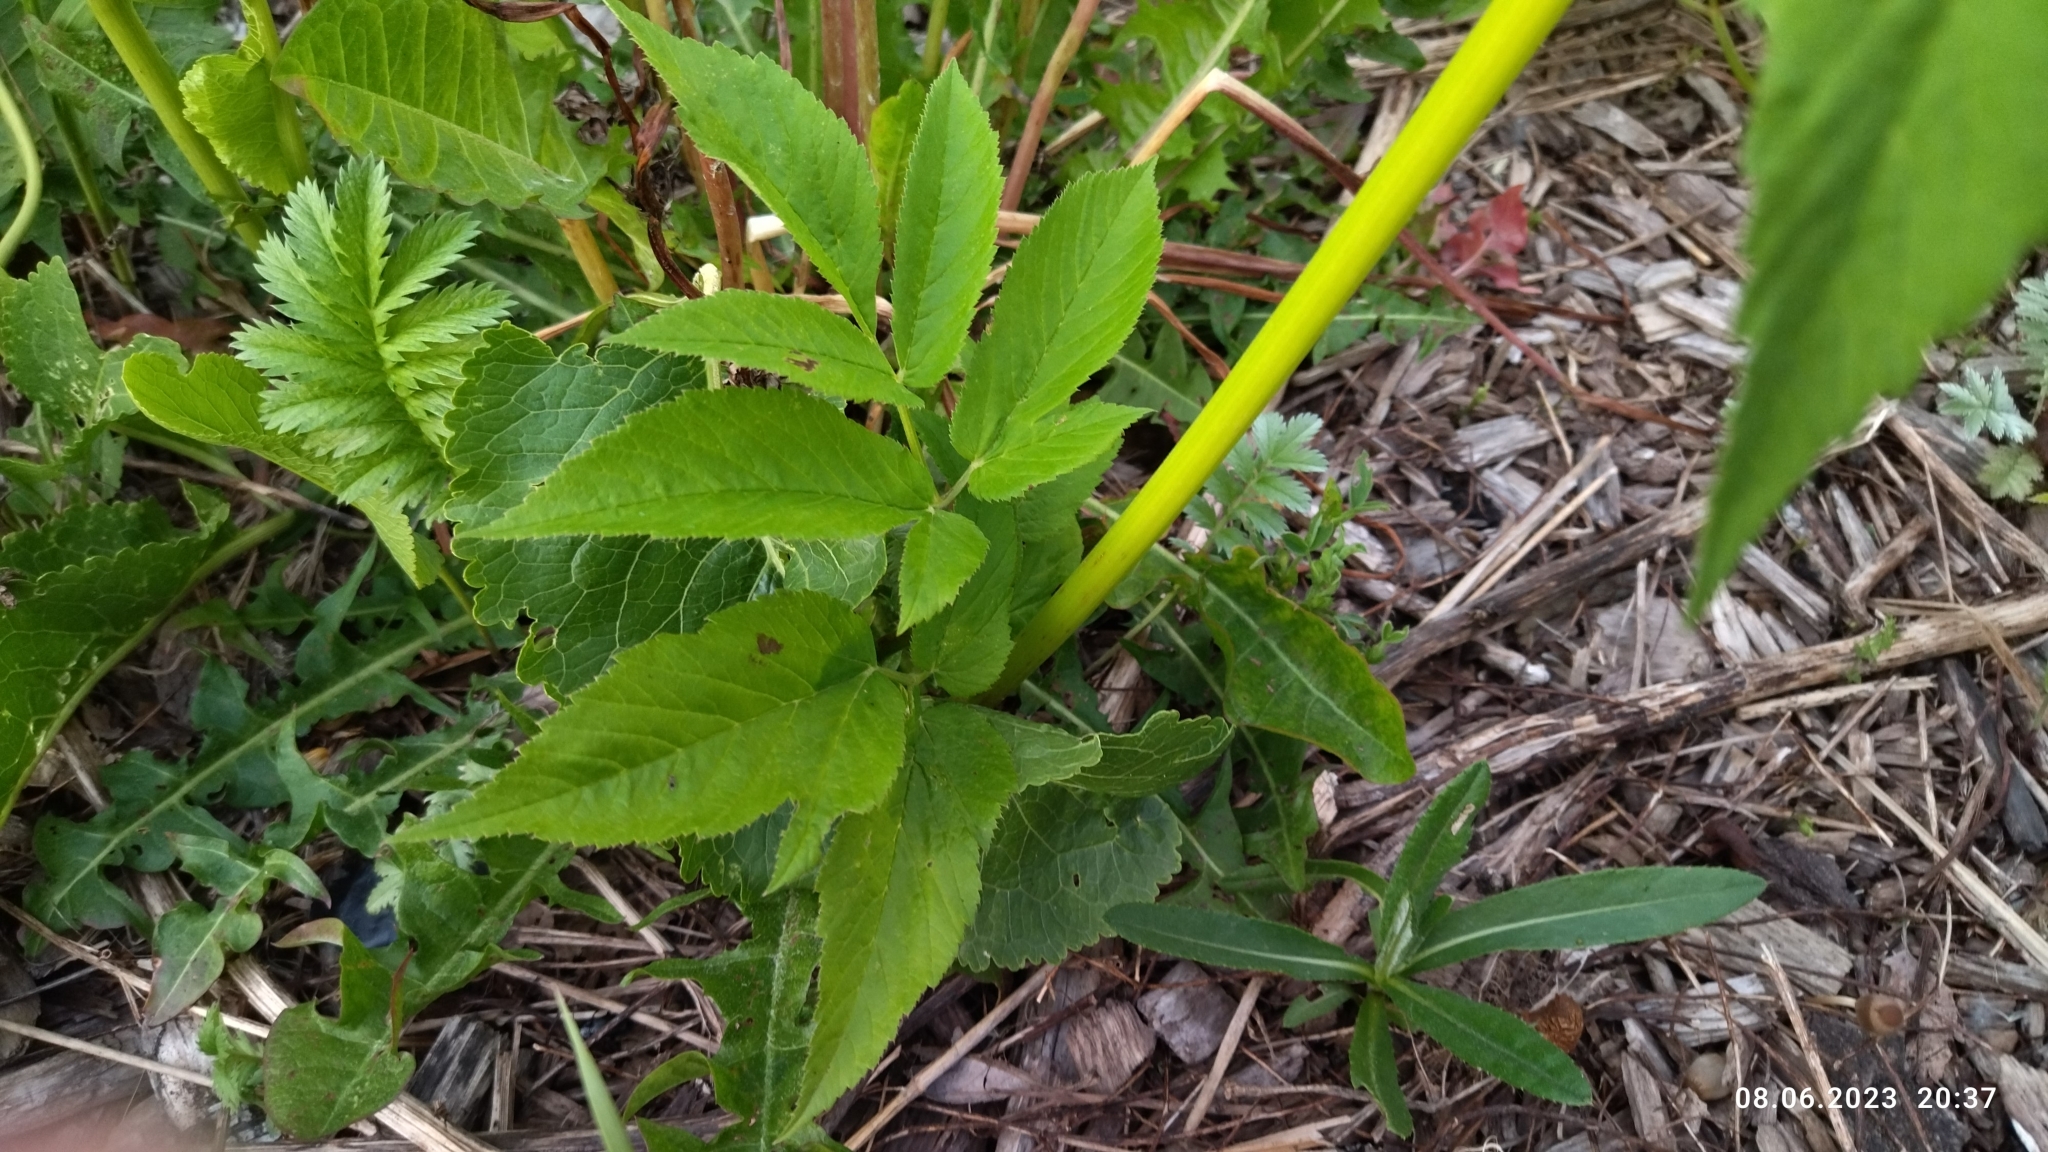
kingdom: Plantae
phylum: Tracheophyta
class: Magnoliopsida
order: Apiales
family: Apiaceae
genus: Aegopodium
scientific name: Aegopodium podagraria
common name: Ground-elder
